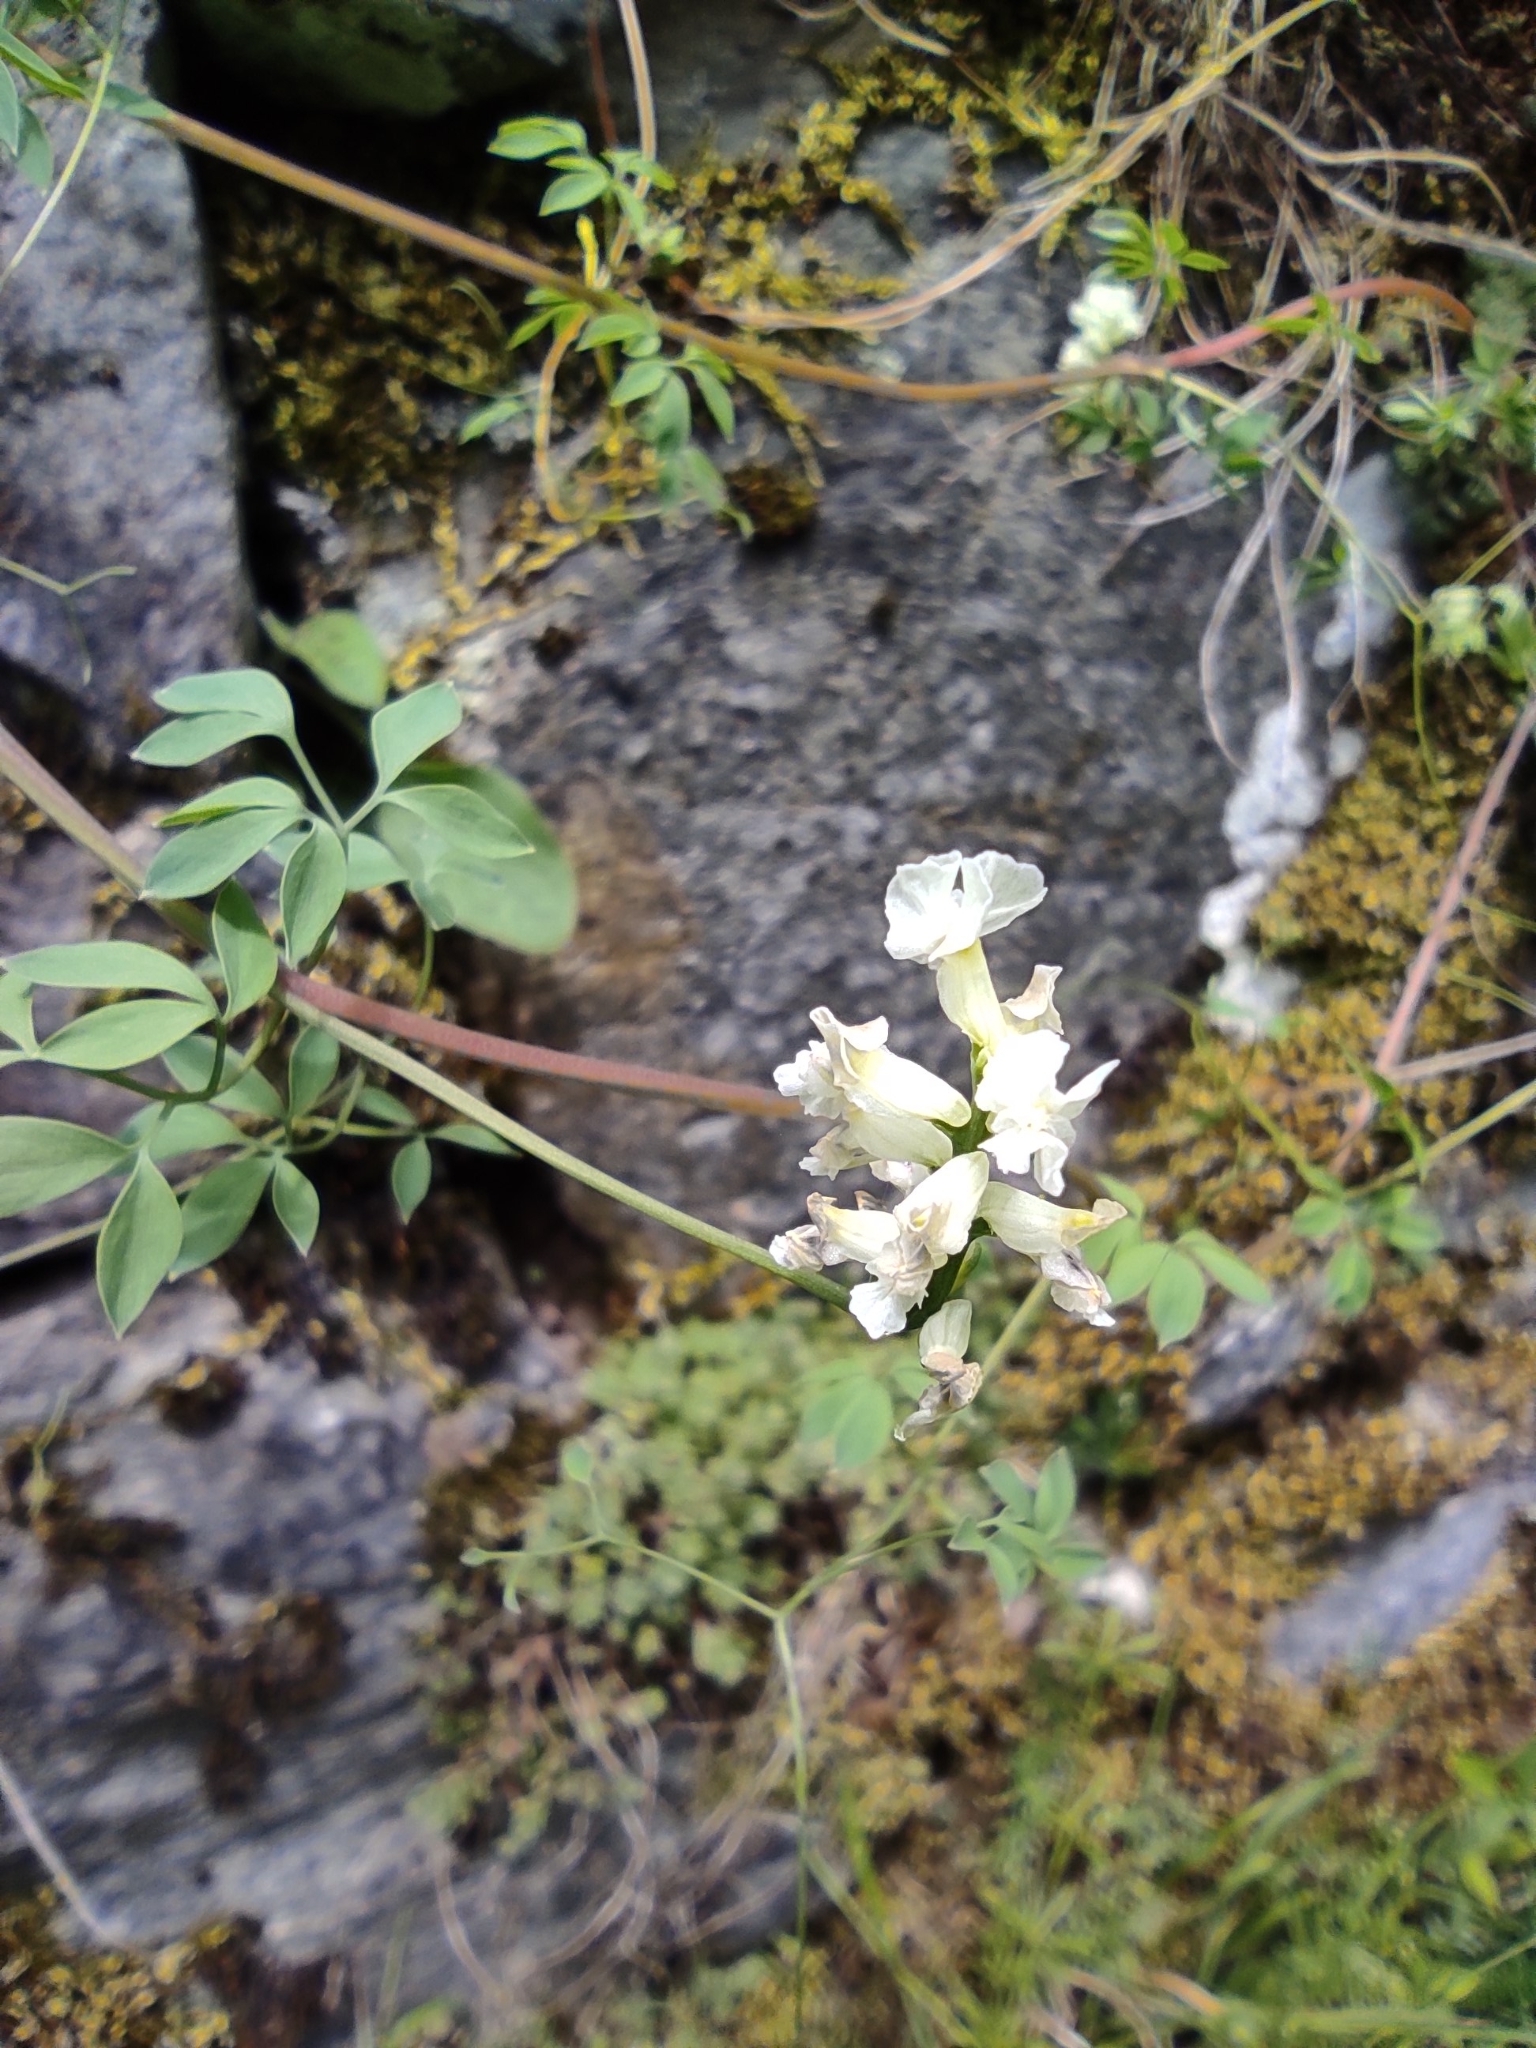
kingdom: Plantae
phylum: Tracheophyta
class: Magnoliopsida
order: Ranunculales
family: Papaveraceae
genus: Ceratocapnos
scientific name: Ceratocapnos claviculata
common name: Climbing corydalis
